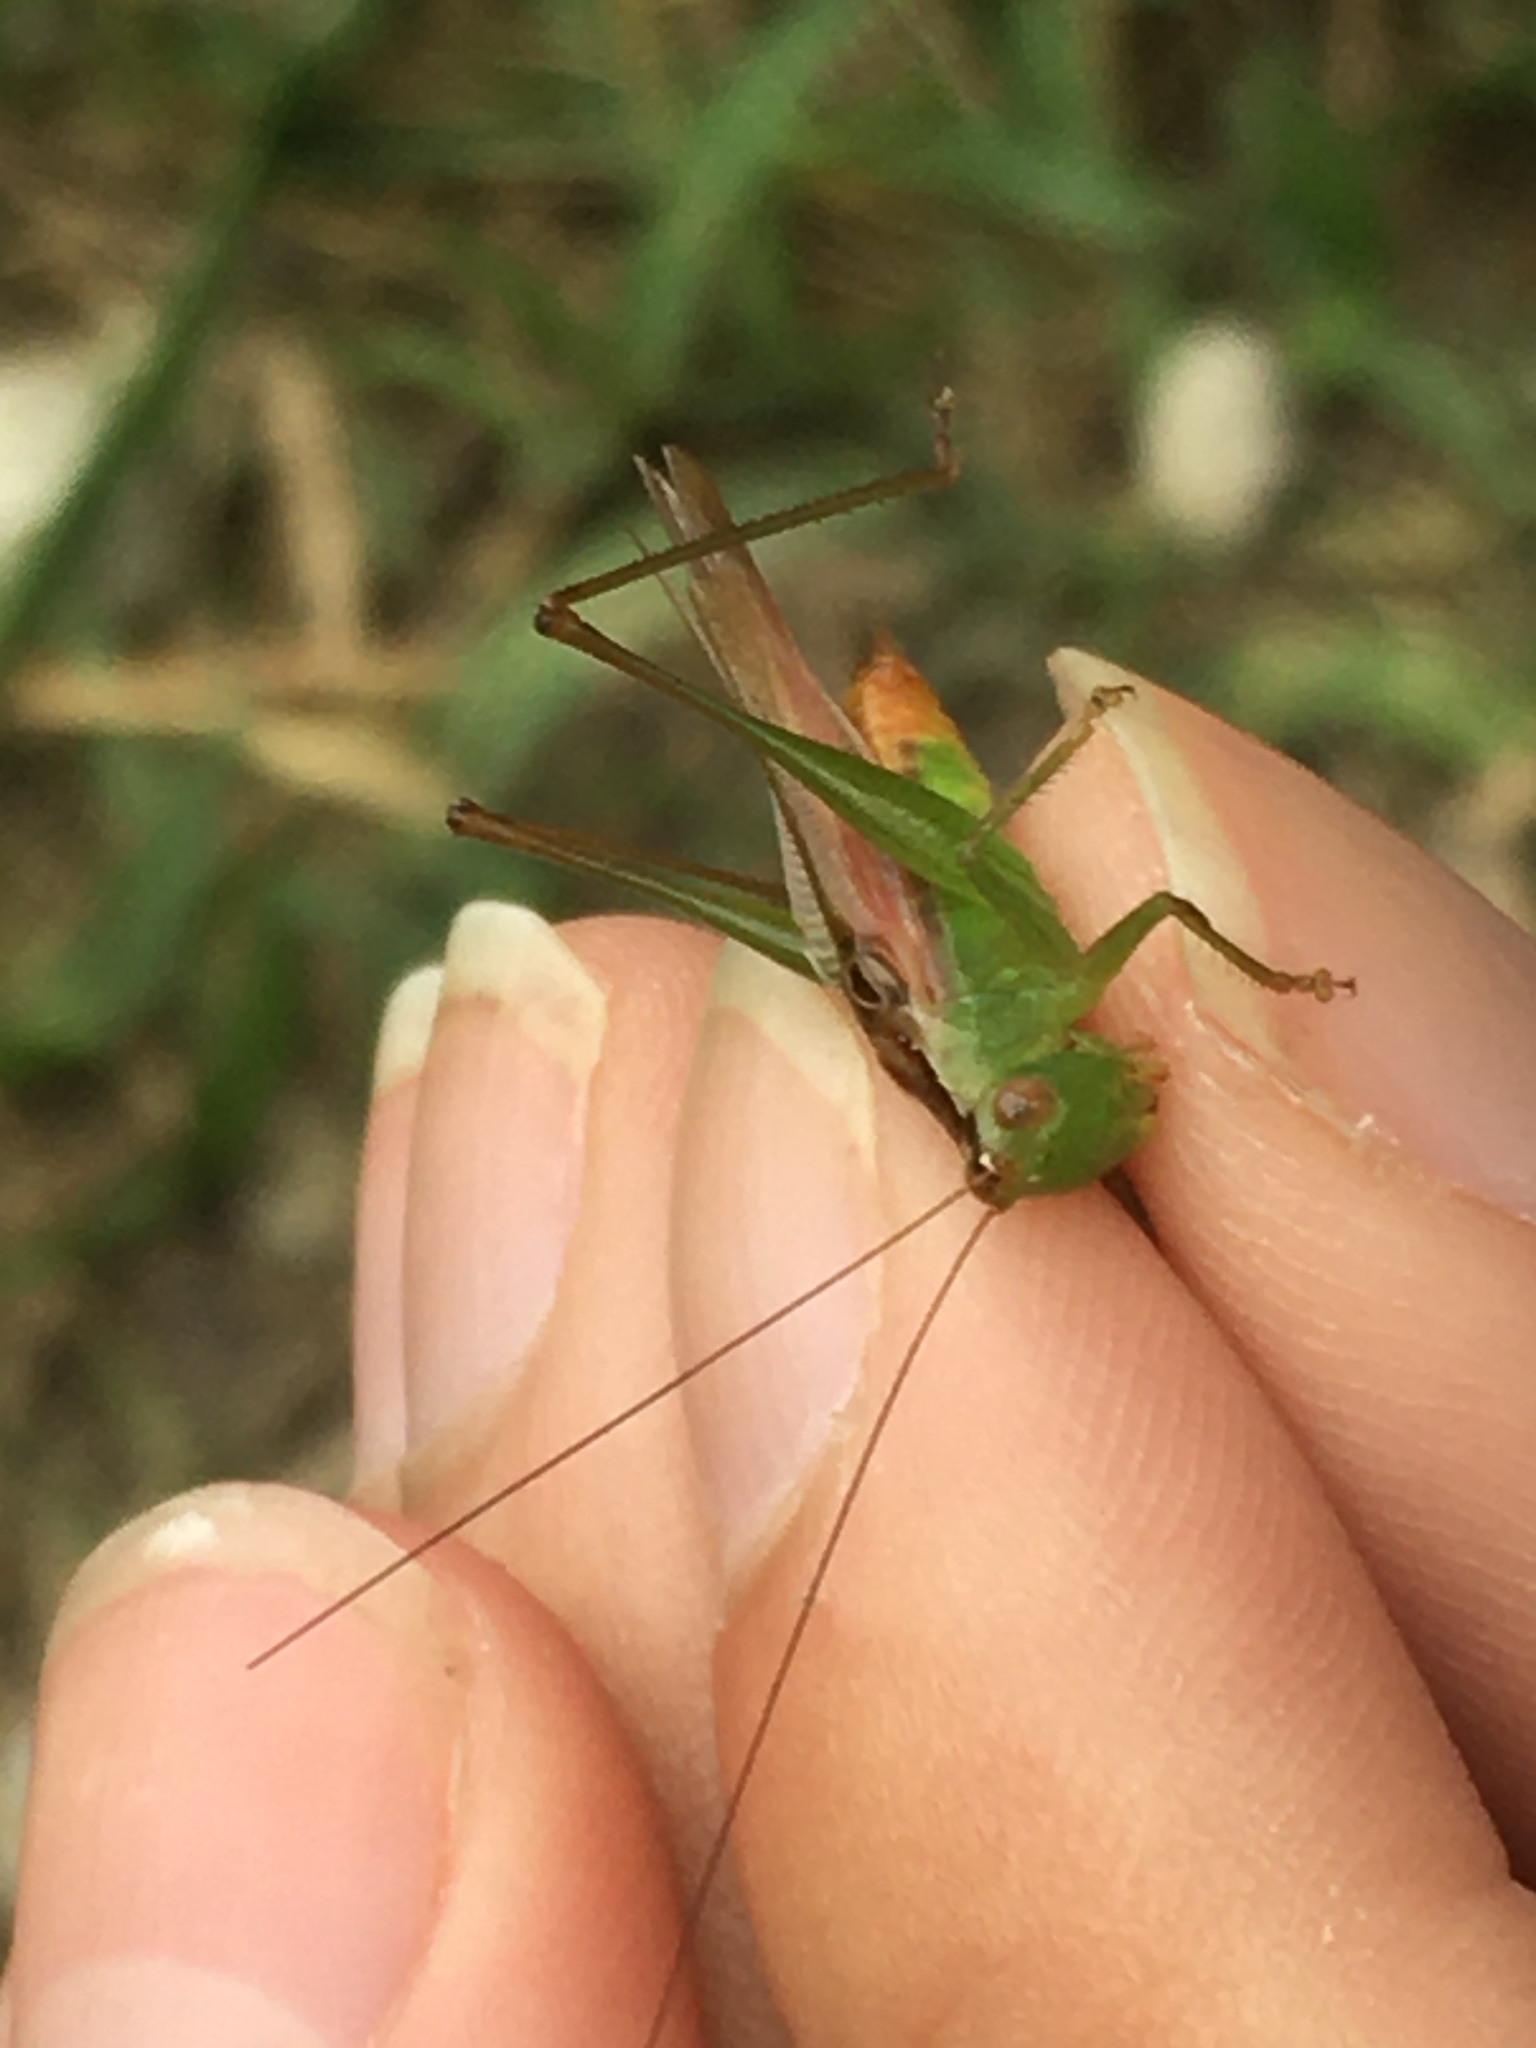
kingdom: Animalia
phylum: Arthropoda
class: Insecta
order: Orthoptera
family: Tettigoniidae
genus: Conocephalus
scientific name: Conocephalus cinereus
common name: Caribbean meadow katydid
